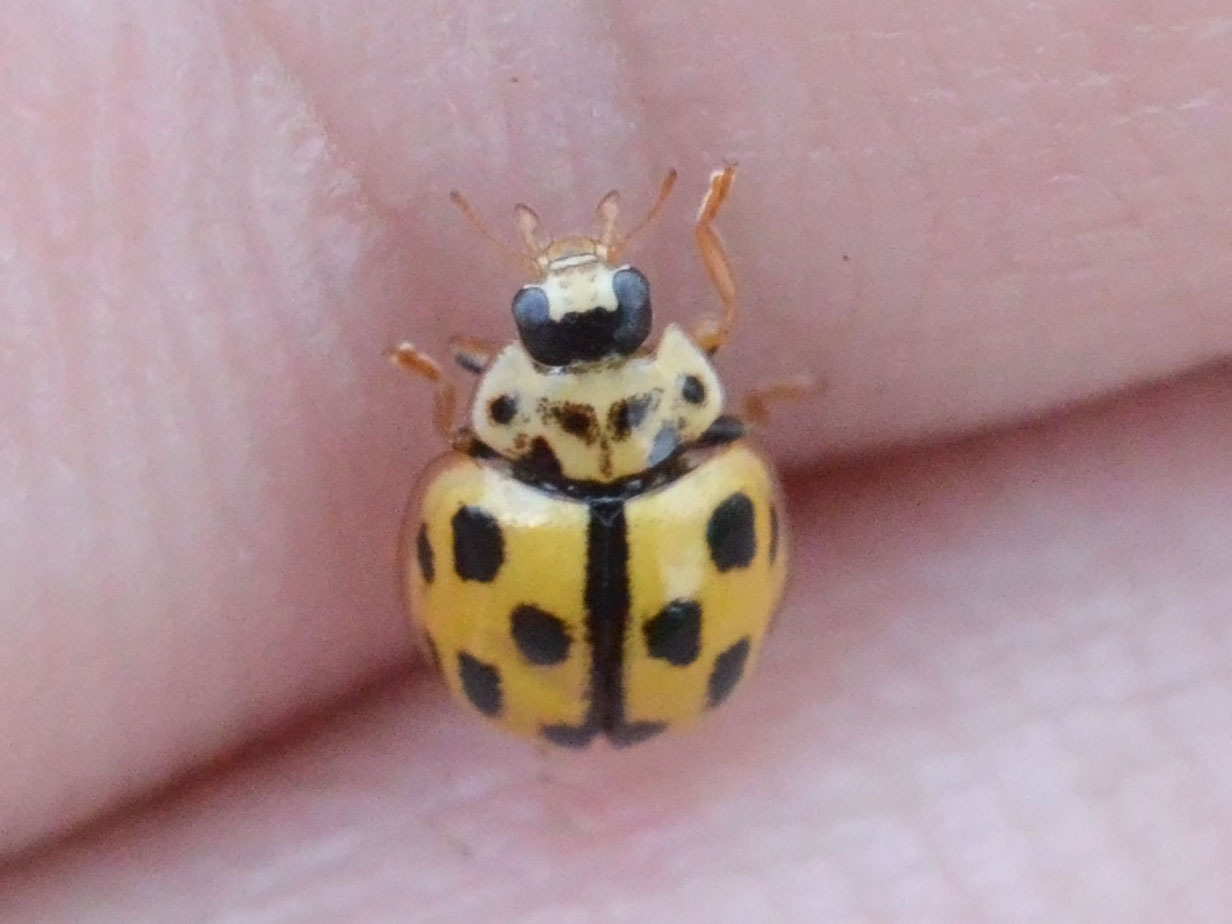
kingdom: Animalia
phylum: Arthropoda
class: Insecta
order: Coleoptera
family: Coccinellidae
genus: Propylaea
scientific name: Propylaea quatuordecimpunctata
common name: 14-spotted ladybird beetle
